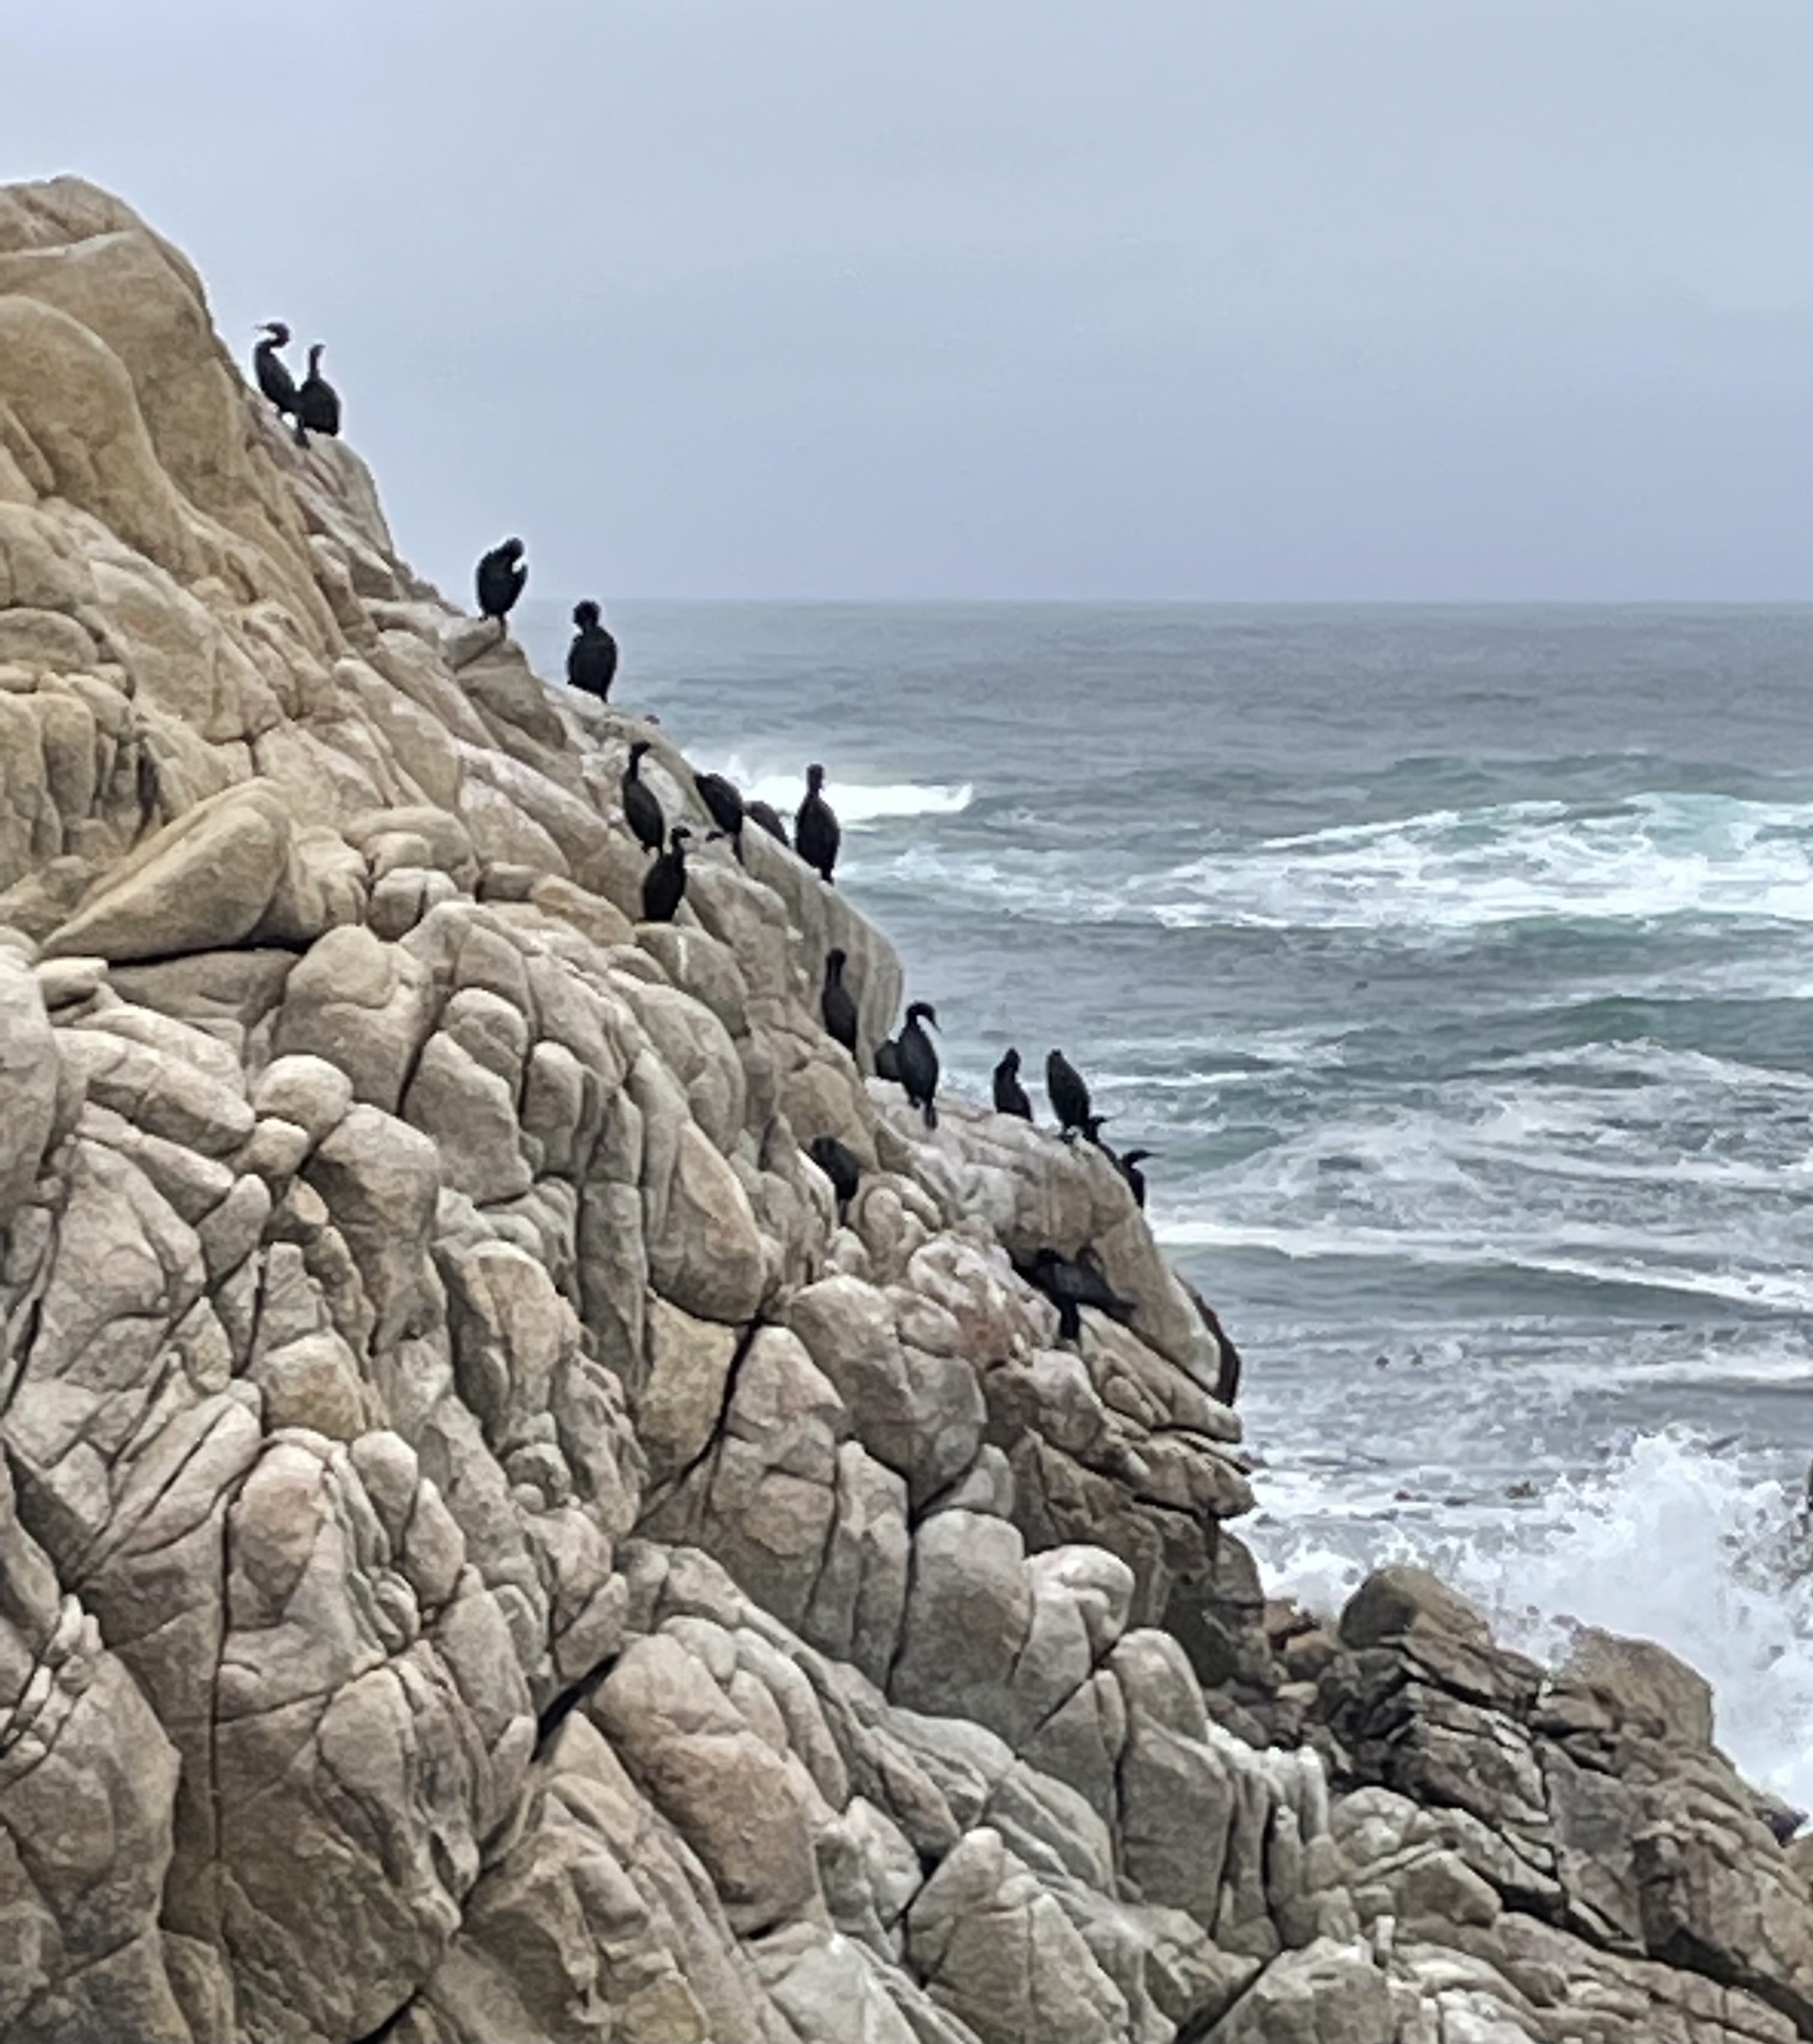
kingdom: Animalia
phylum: Chordata
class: Aves
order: Suliformes
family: Phalacrocoracidae
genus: Urile
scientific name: Urile penicillatus
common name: Brandt's cormorant
